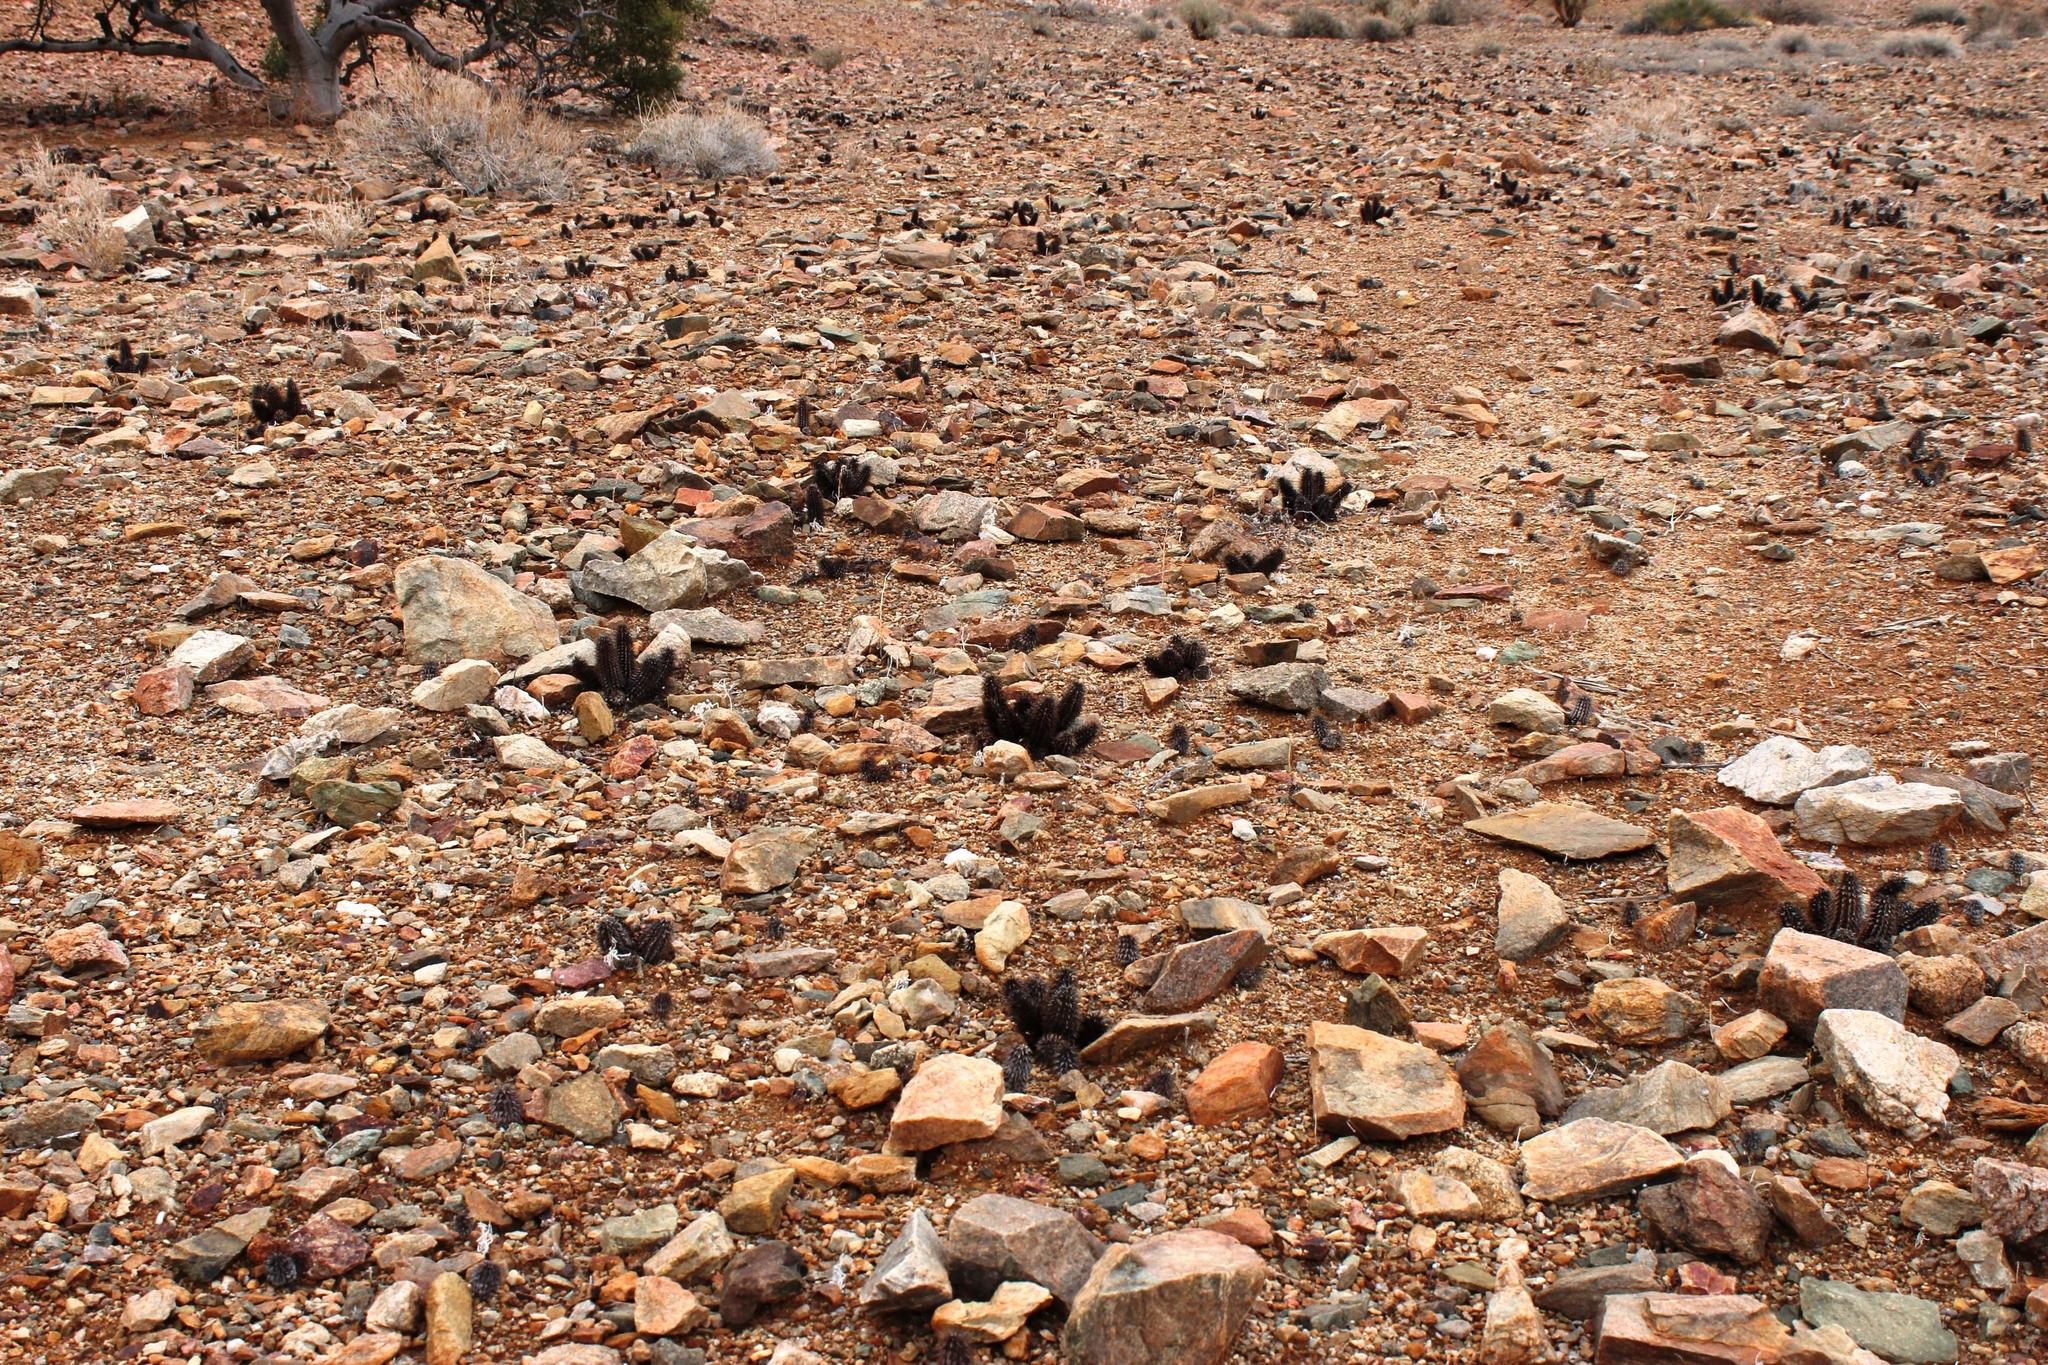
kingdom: Plantae
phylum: Tracheophyta
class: Magnoliopsida
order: Lamiales
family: Acanthaceae
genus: Acanthopsis
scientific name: Acanthopsis disperma
